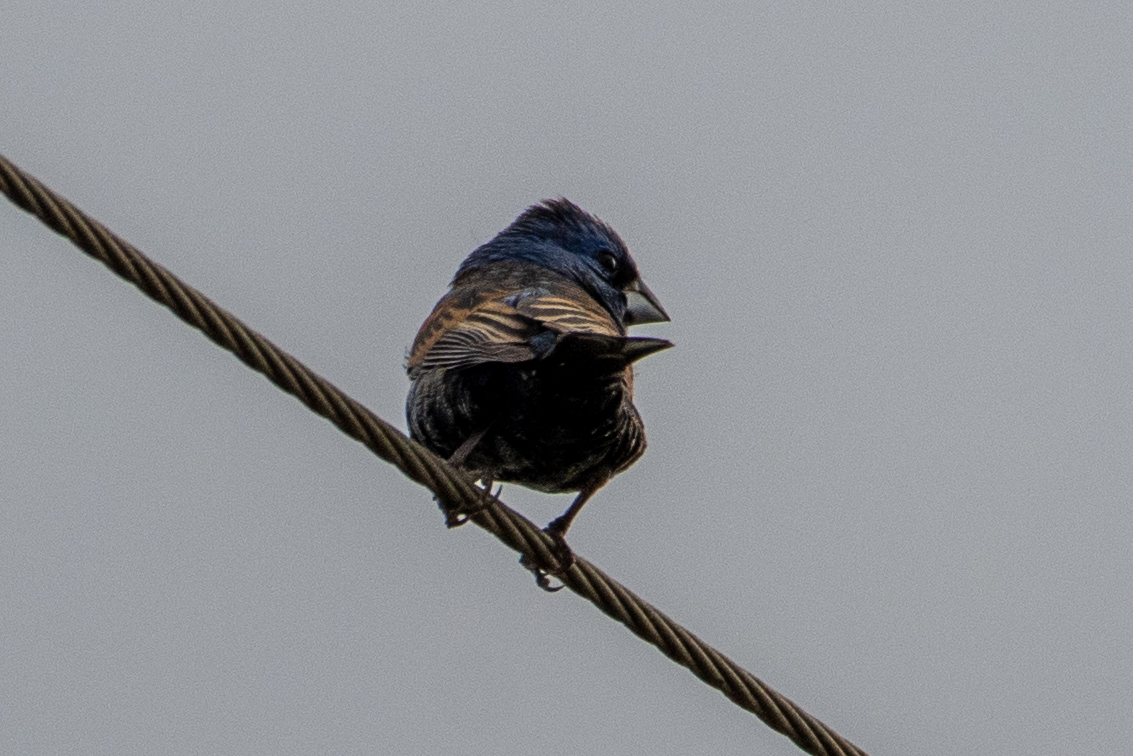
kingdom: Animalia
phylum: Chordata
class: Aves
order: Passeriformes
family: Cardinalidae
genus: Passerina
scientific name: Passerina caerulea
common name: Blue grosbeak
